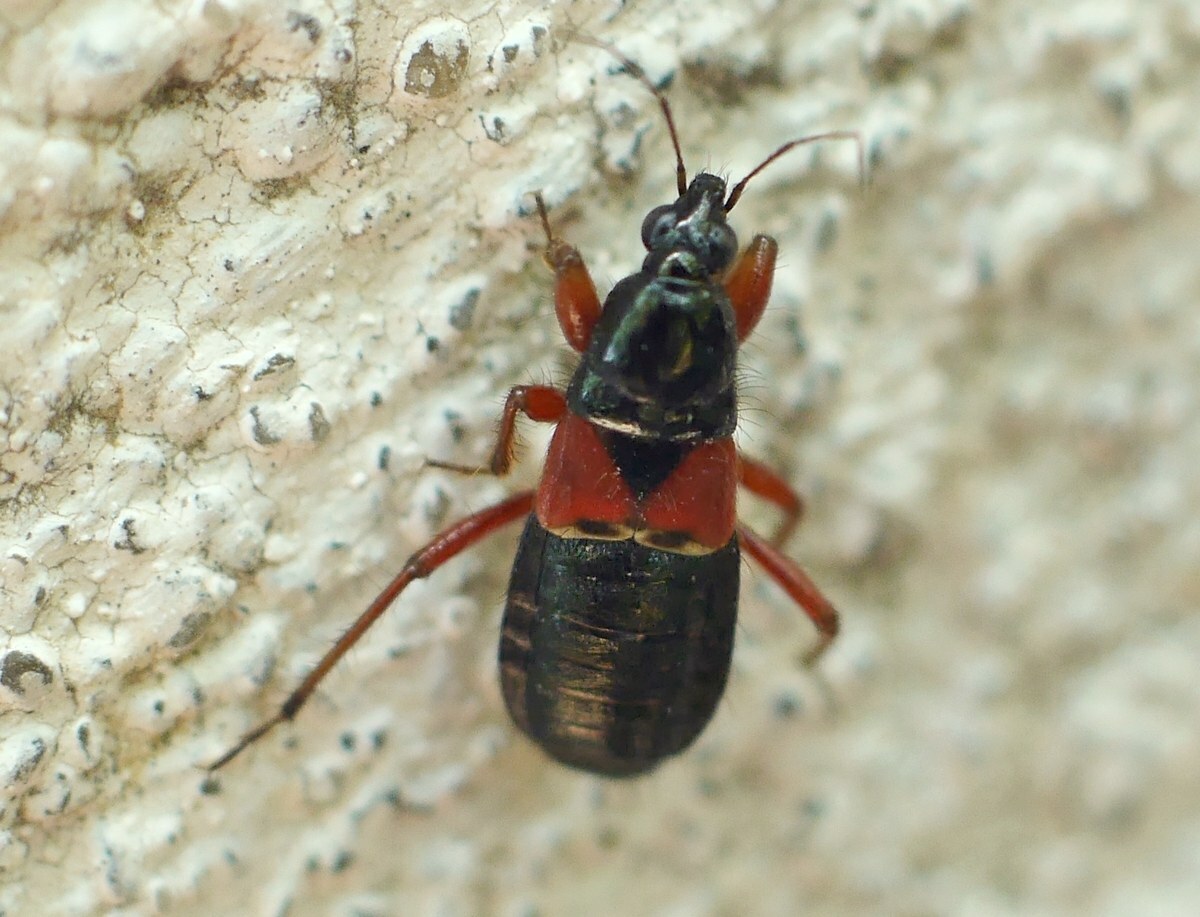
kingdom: Animalia
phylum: Arthropoda
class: Insecta
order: Hemiptera
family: Nabidae
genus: Prostemma
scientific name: Prostemma guttula
